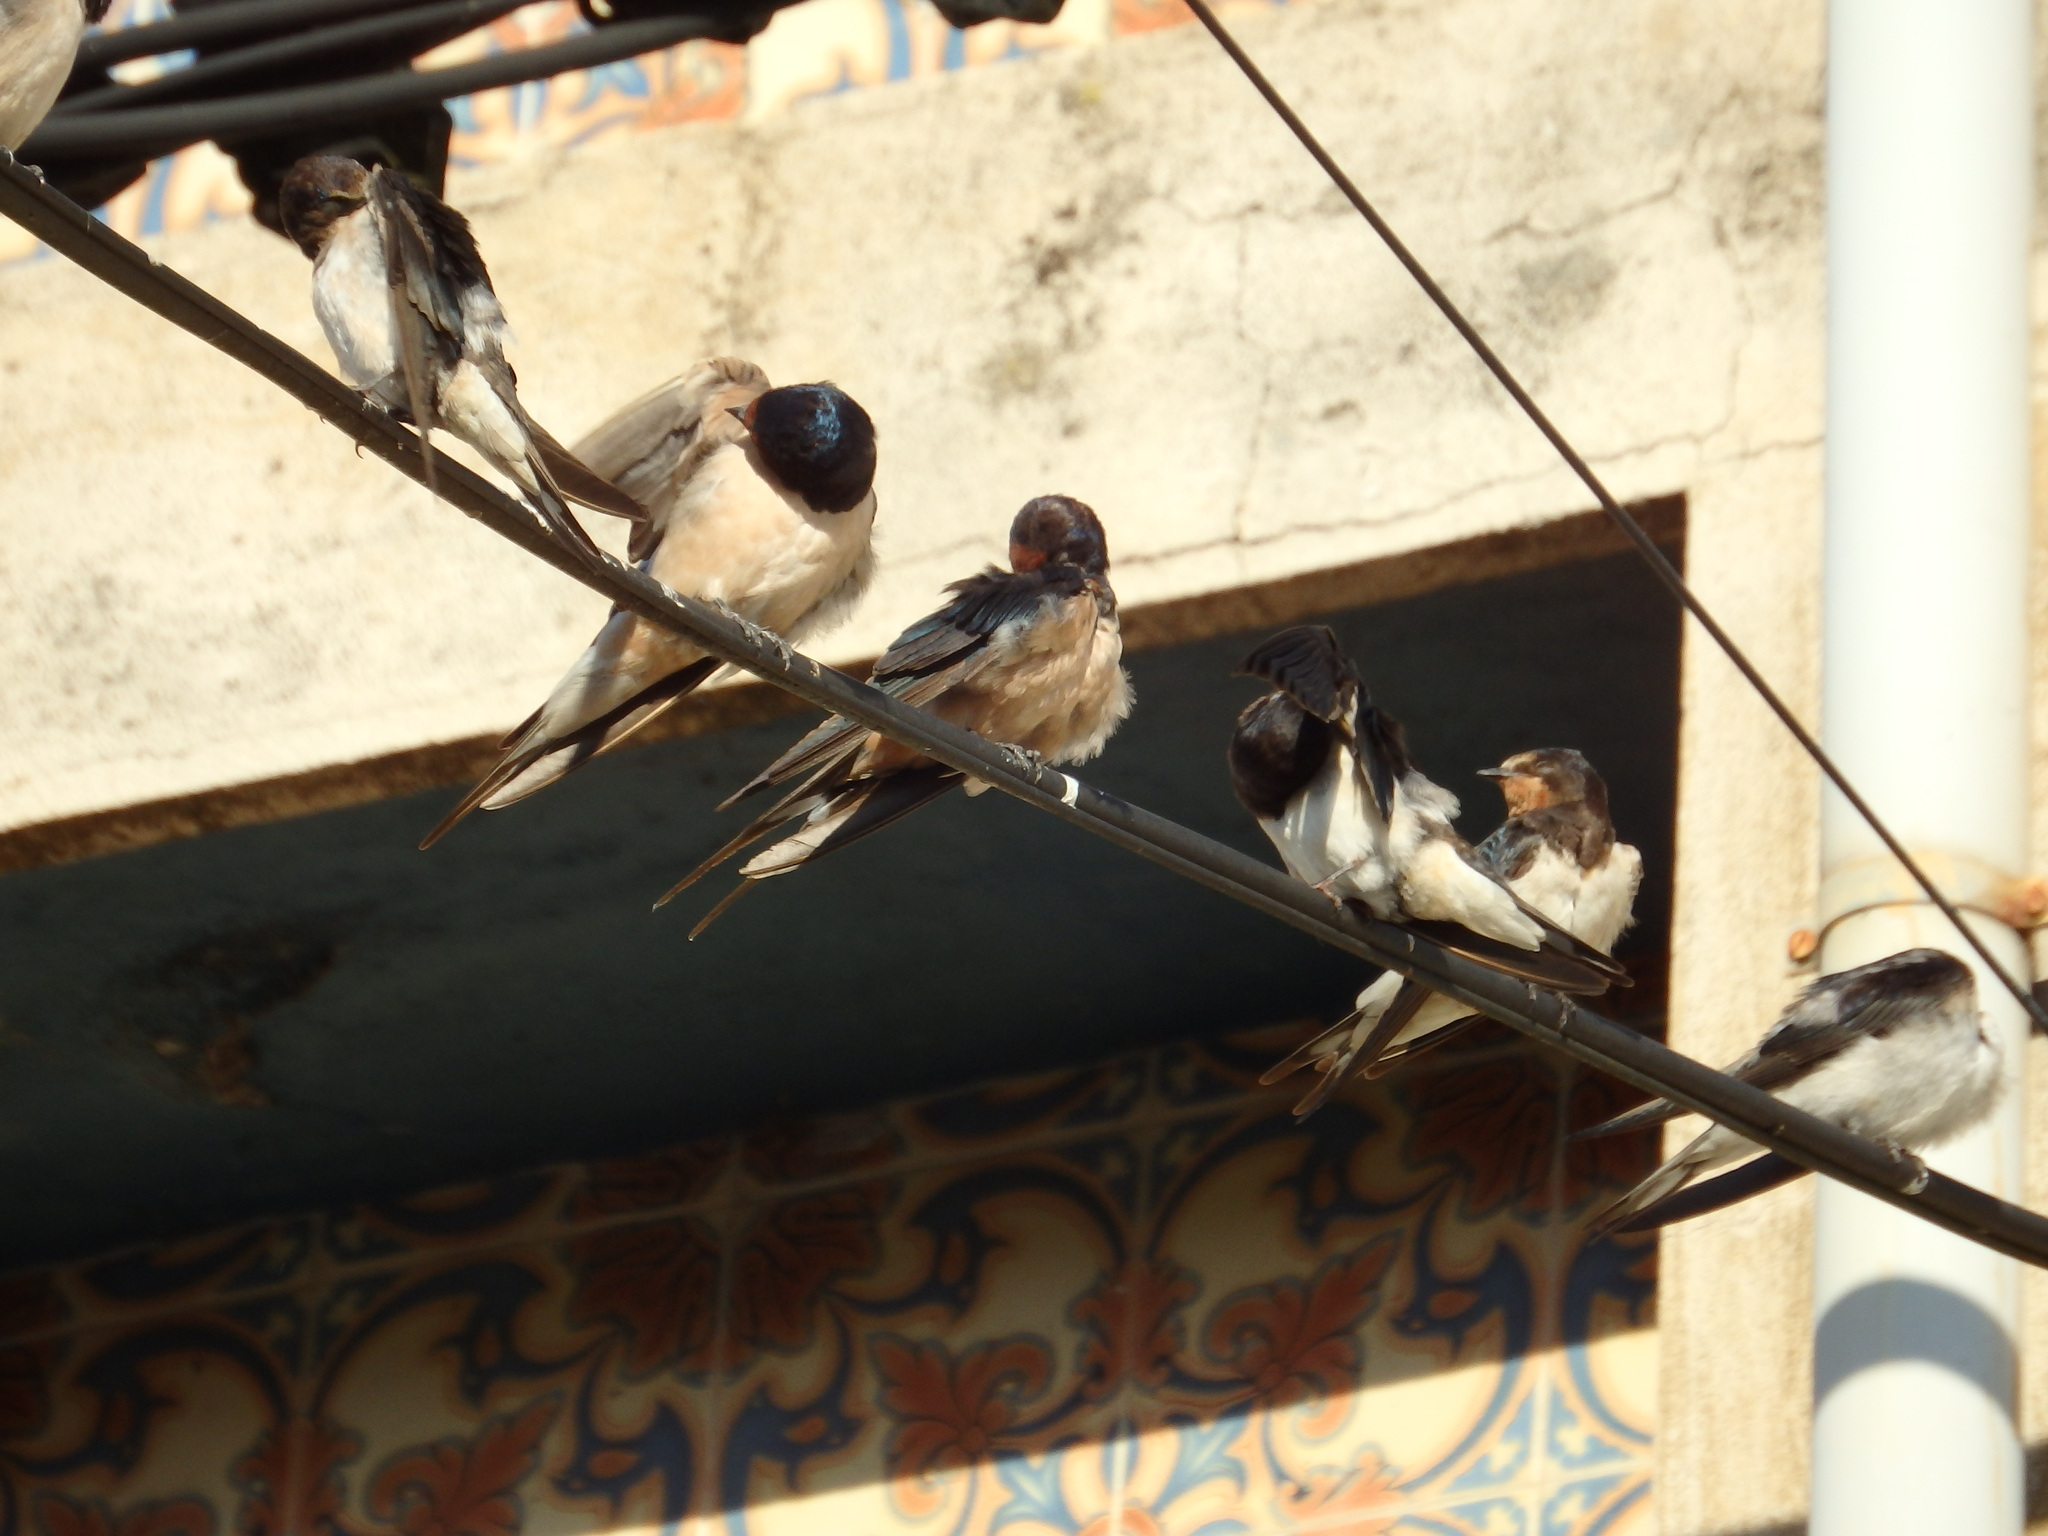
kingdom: Animalia
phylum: Chordata
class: Aves
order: Passeriformes
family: Hirundinidae
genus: Hirundo
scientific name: Hirundo rustica
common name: Barn swallow
